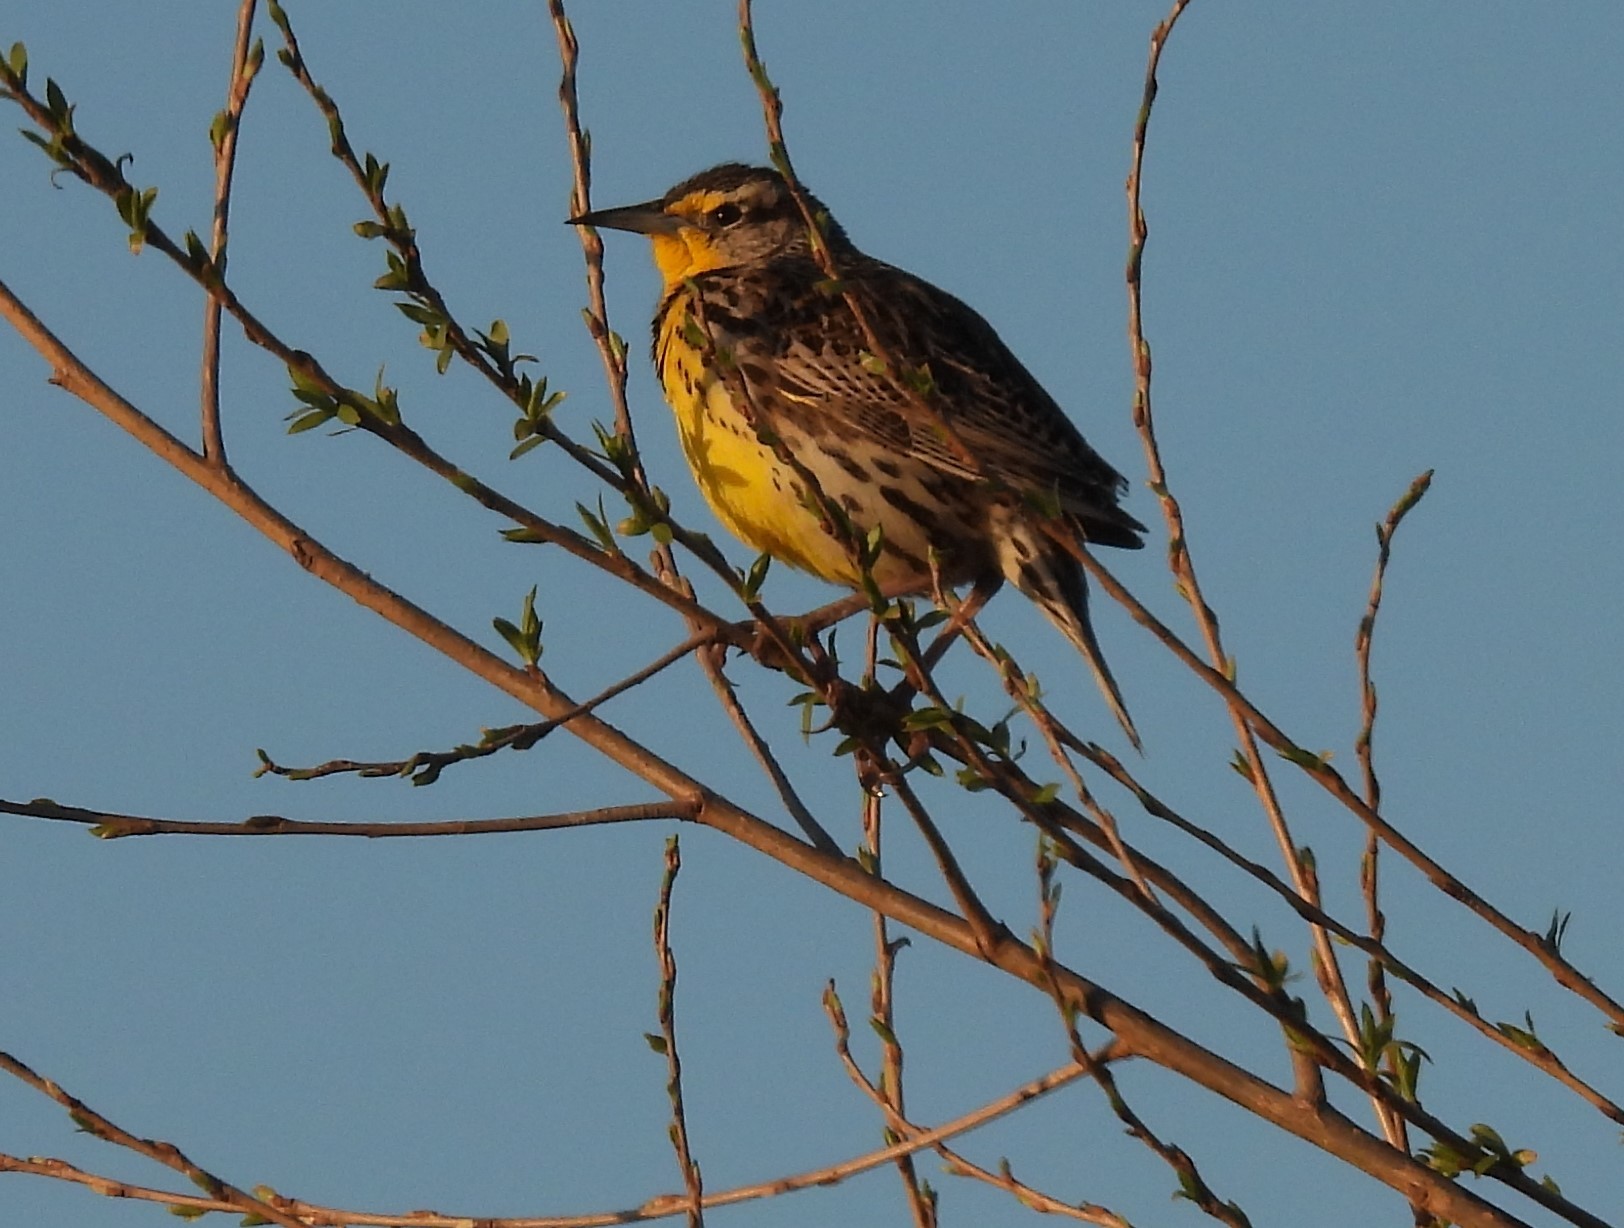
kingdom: Animalia
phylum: Chordata
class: Aves
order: Passeriformes
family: Icteridae
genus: Sturnella
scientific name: Sturnella neglecta
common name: Western meadowlark
